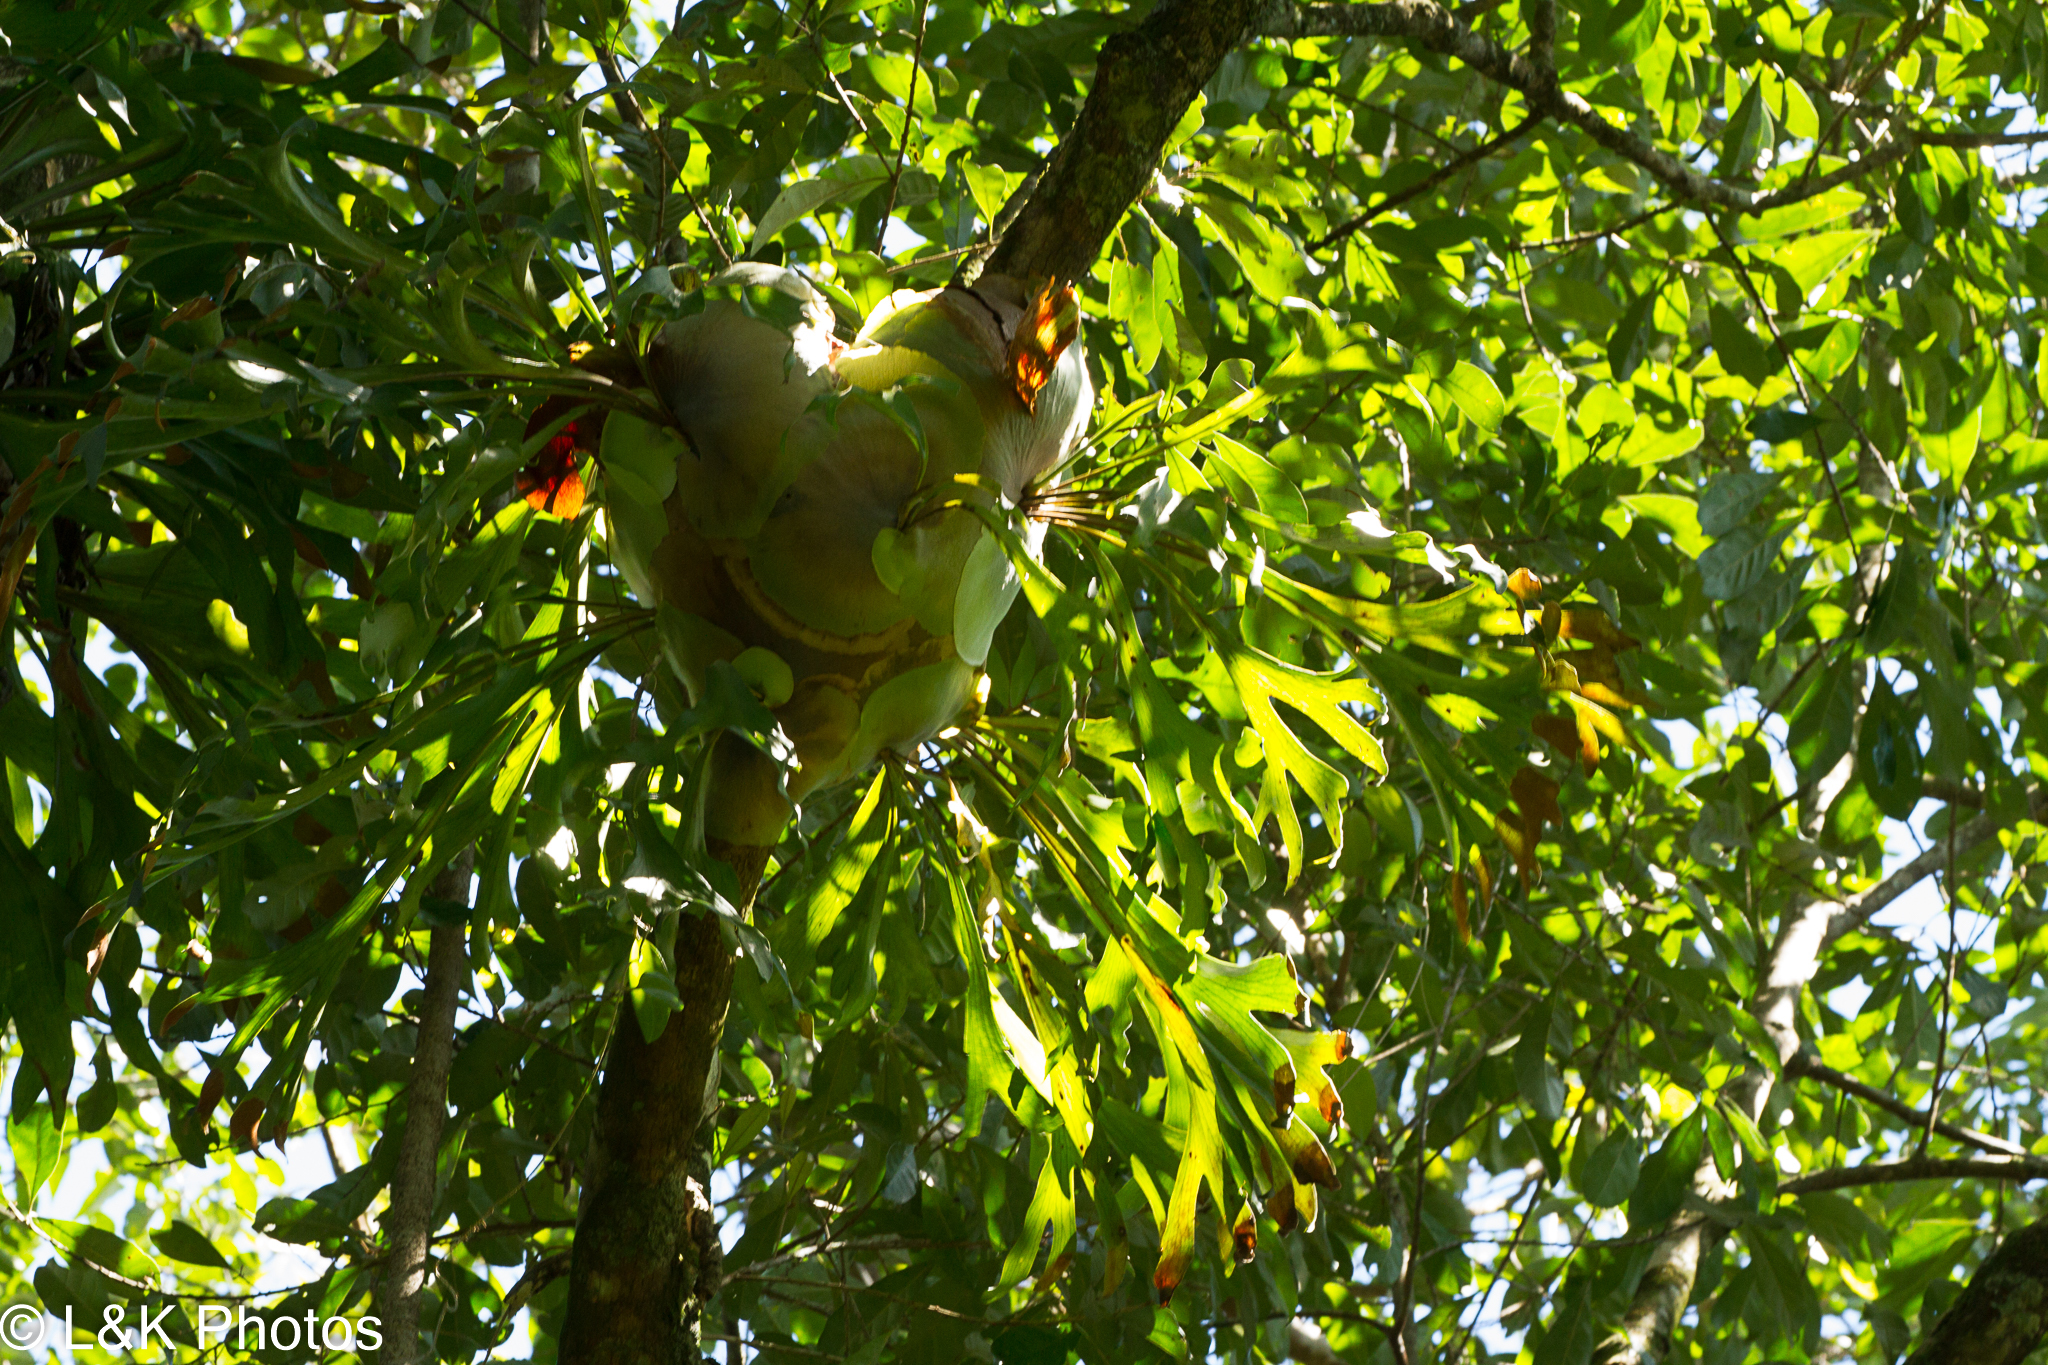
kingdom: Plantae
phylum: Tracheophyta
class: Polypodiopsida
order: Polypodiales
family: Polypodiaceae
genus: Platycerium
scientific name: Platycerium hillii
